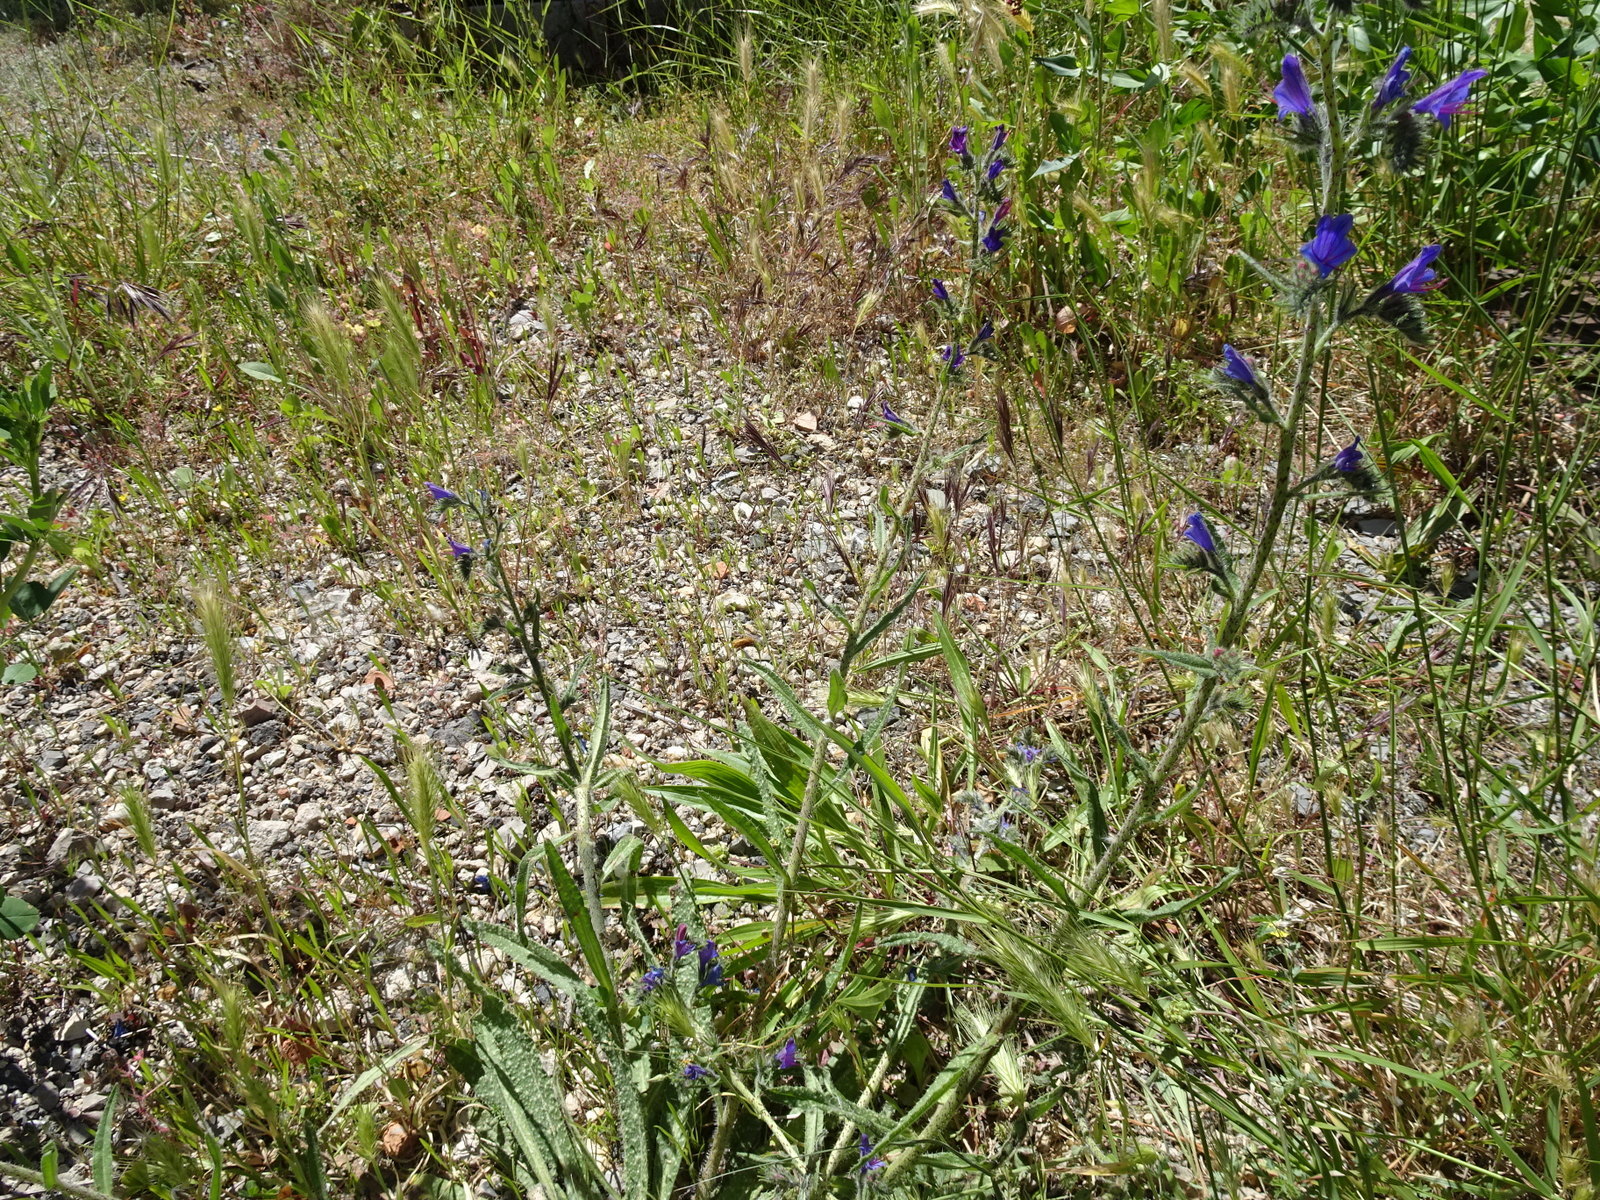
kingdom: Plantae
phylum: Tracheophyta
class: Magnoliopsida
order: Boraginales
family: Boraginaceae
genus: Echium
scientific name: Echium vulgare
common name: Common viper's bugloss
